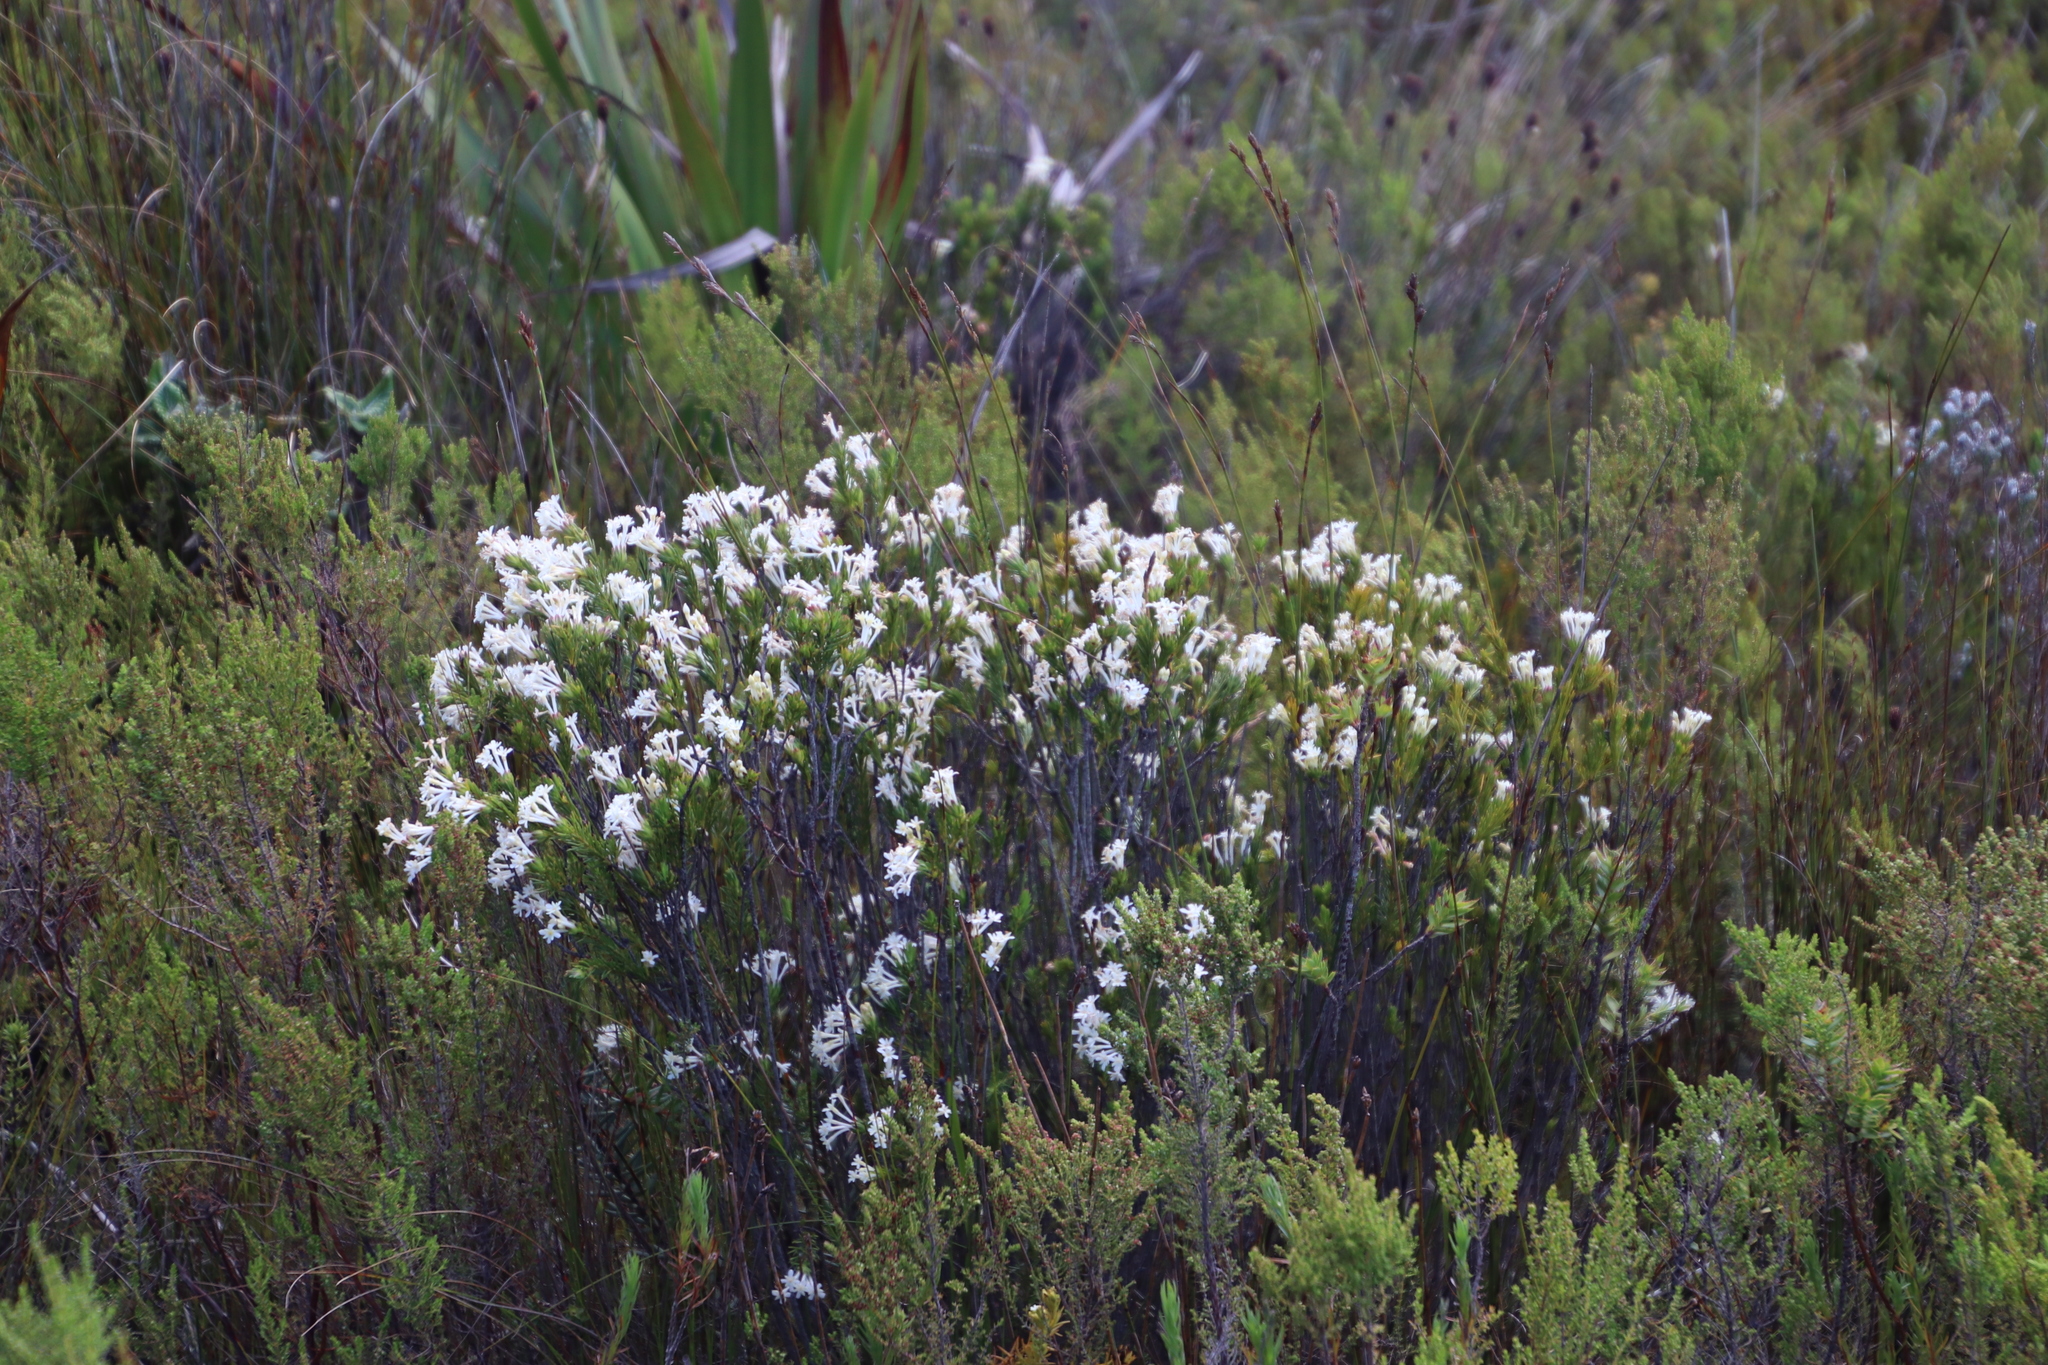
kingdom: Plantae
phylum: Tracheophyta
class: Magnoliopsida
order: Malvales
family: Thymelaeaceae
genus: Gnidia
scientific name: Gnidia tomentosa
